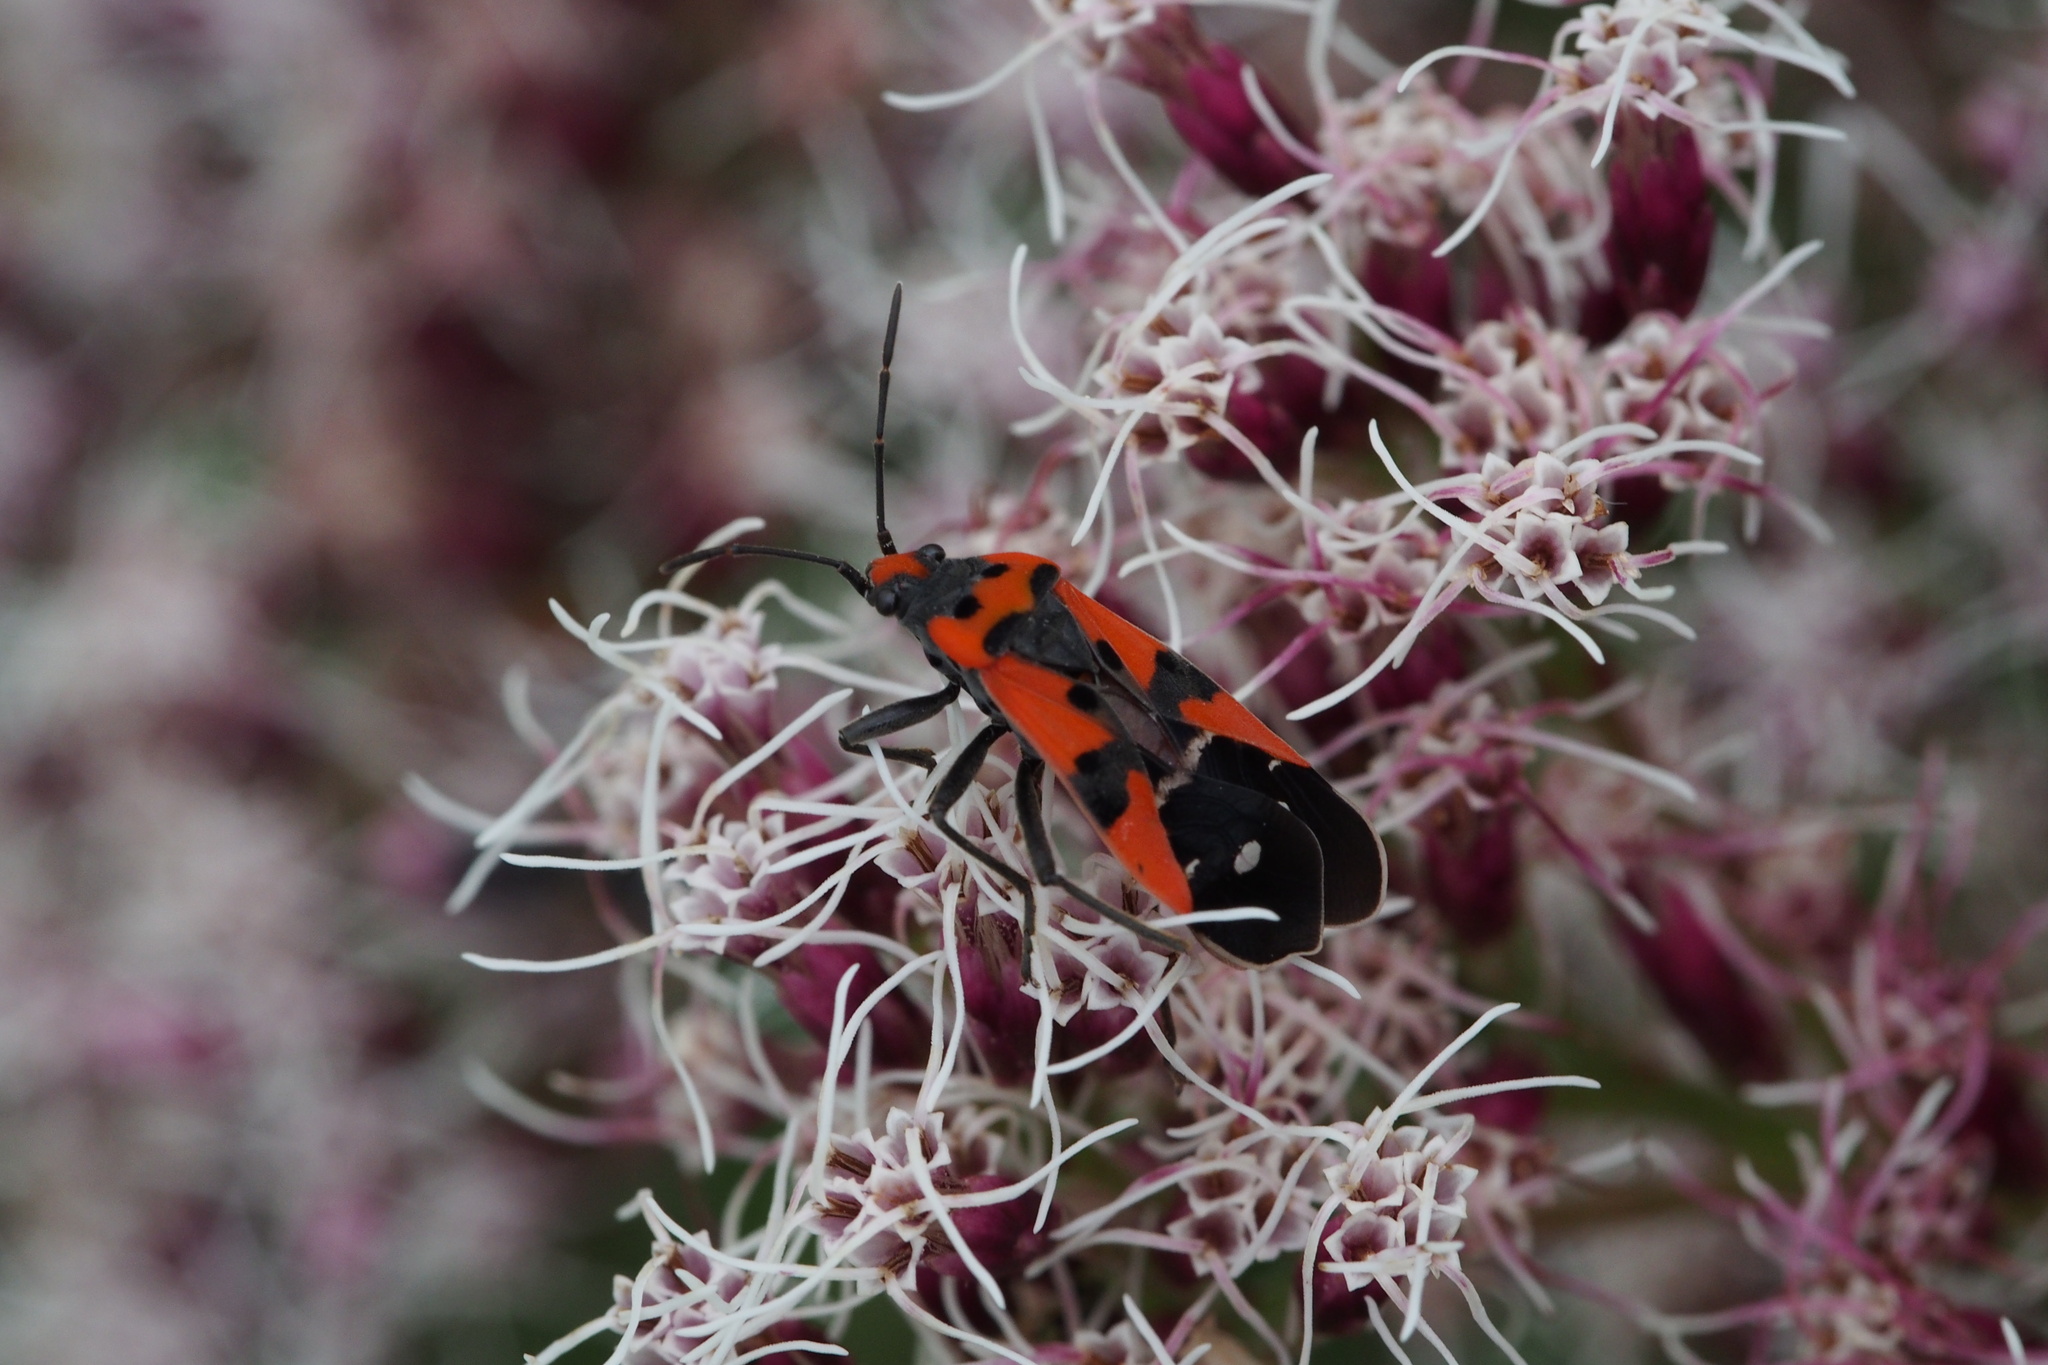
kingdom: Animalia
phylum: Arthropoda
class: Insecta
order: Hemiptera
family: Lygaeidae
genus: Lygaeus
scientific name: Lygaeus equestris
